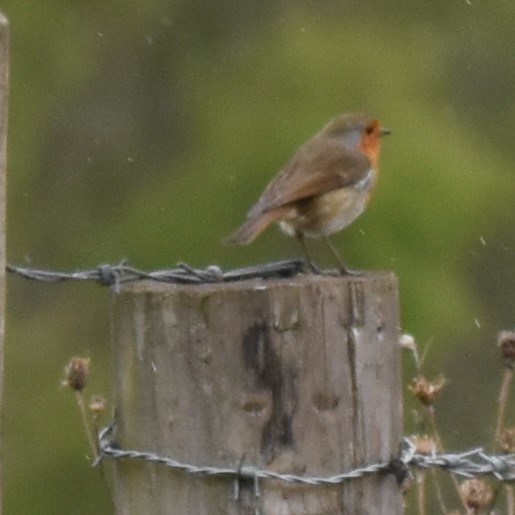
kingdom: Animalia
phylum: Chordata
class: Aves
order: Passeriformes
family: Muscicapidae
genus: Erithacus
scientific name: Erithacus rubecula
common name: European robin
